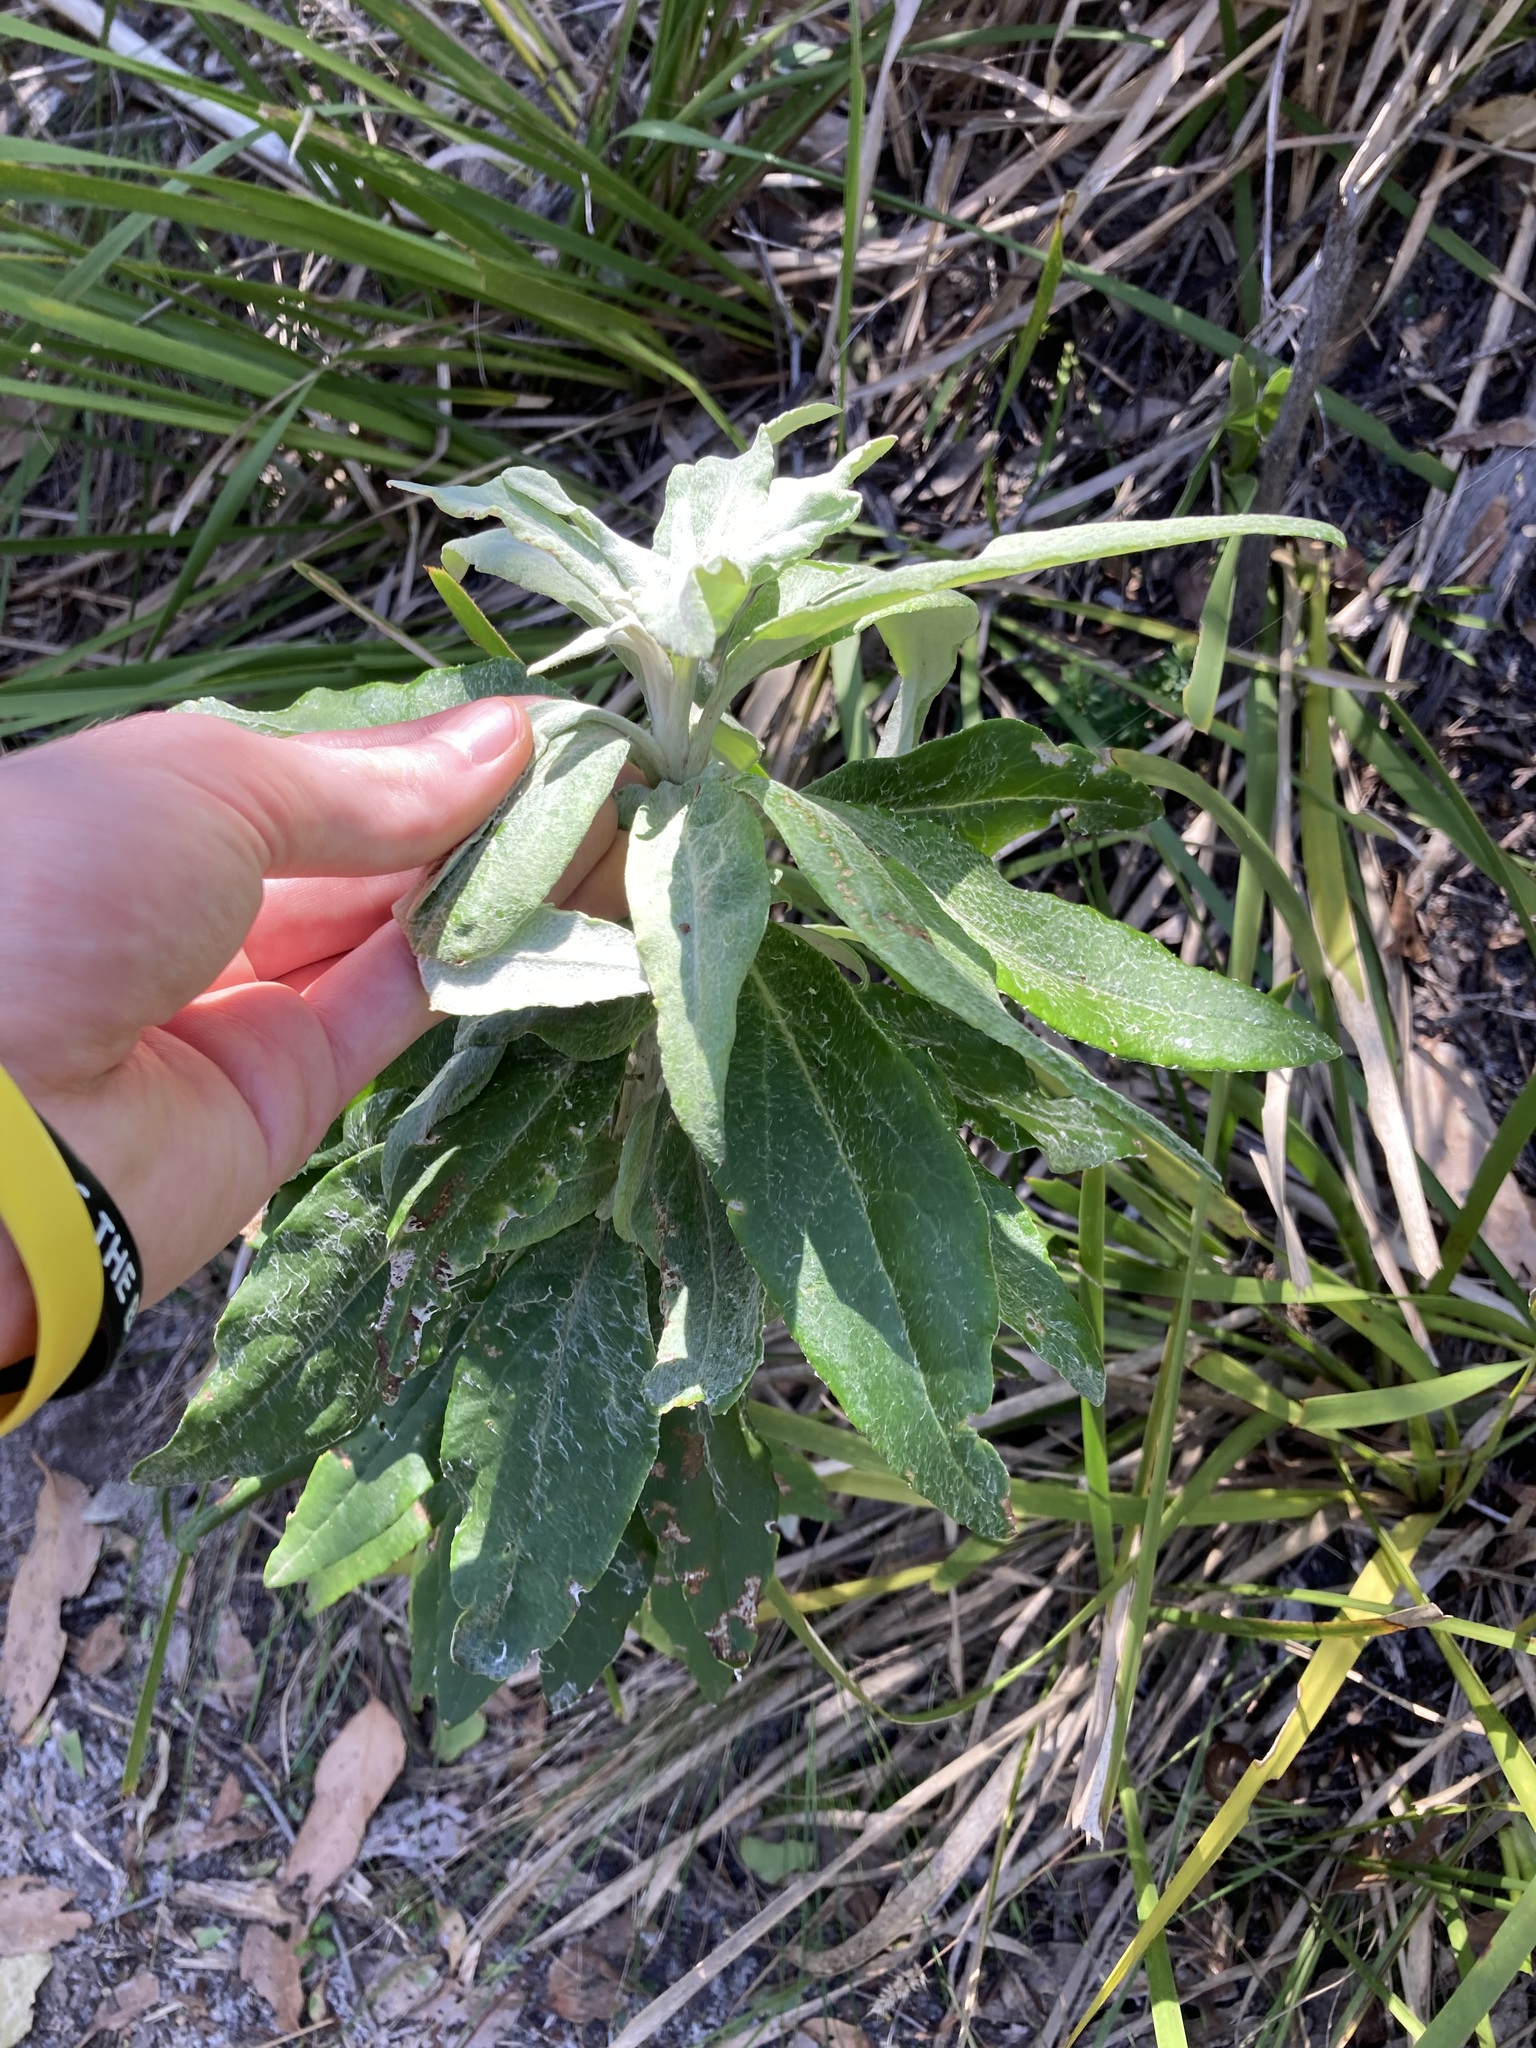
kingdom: Plantae
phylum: Tracheophyta
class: Magnoliopsida
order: Asterales
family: Asteraceae
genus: Leucozoma
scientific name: Leucozoma elatum
